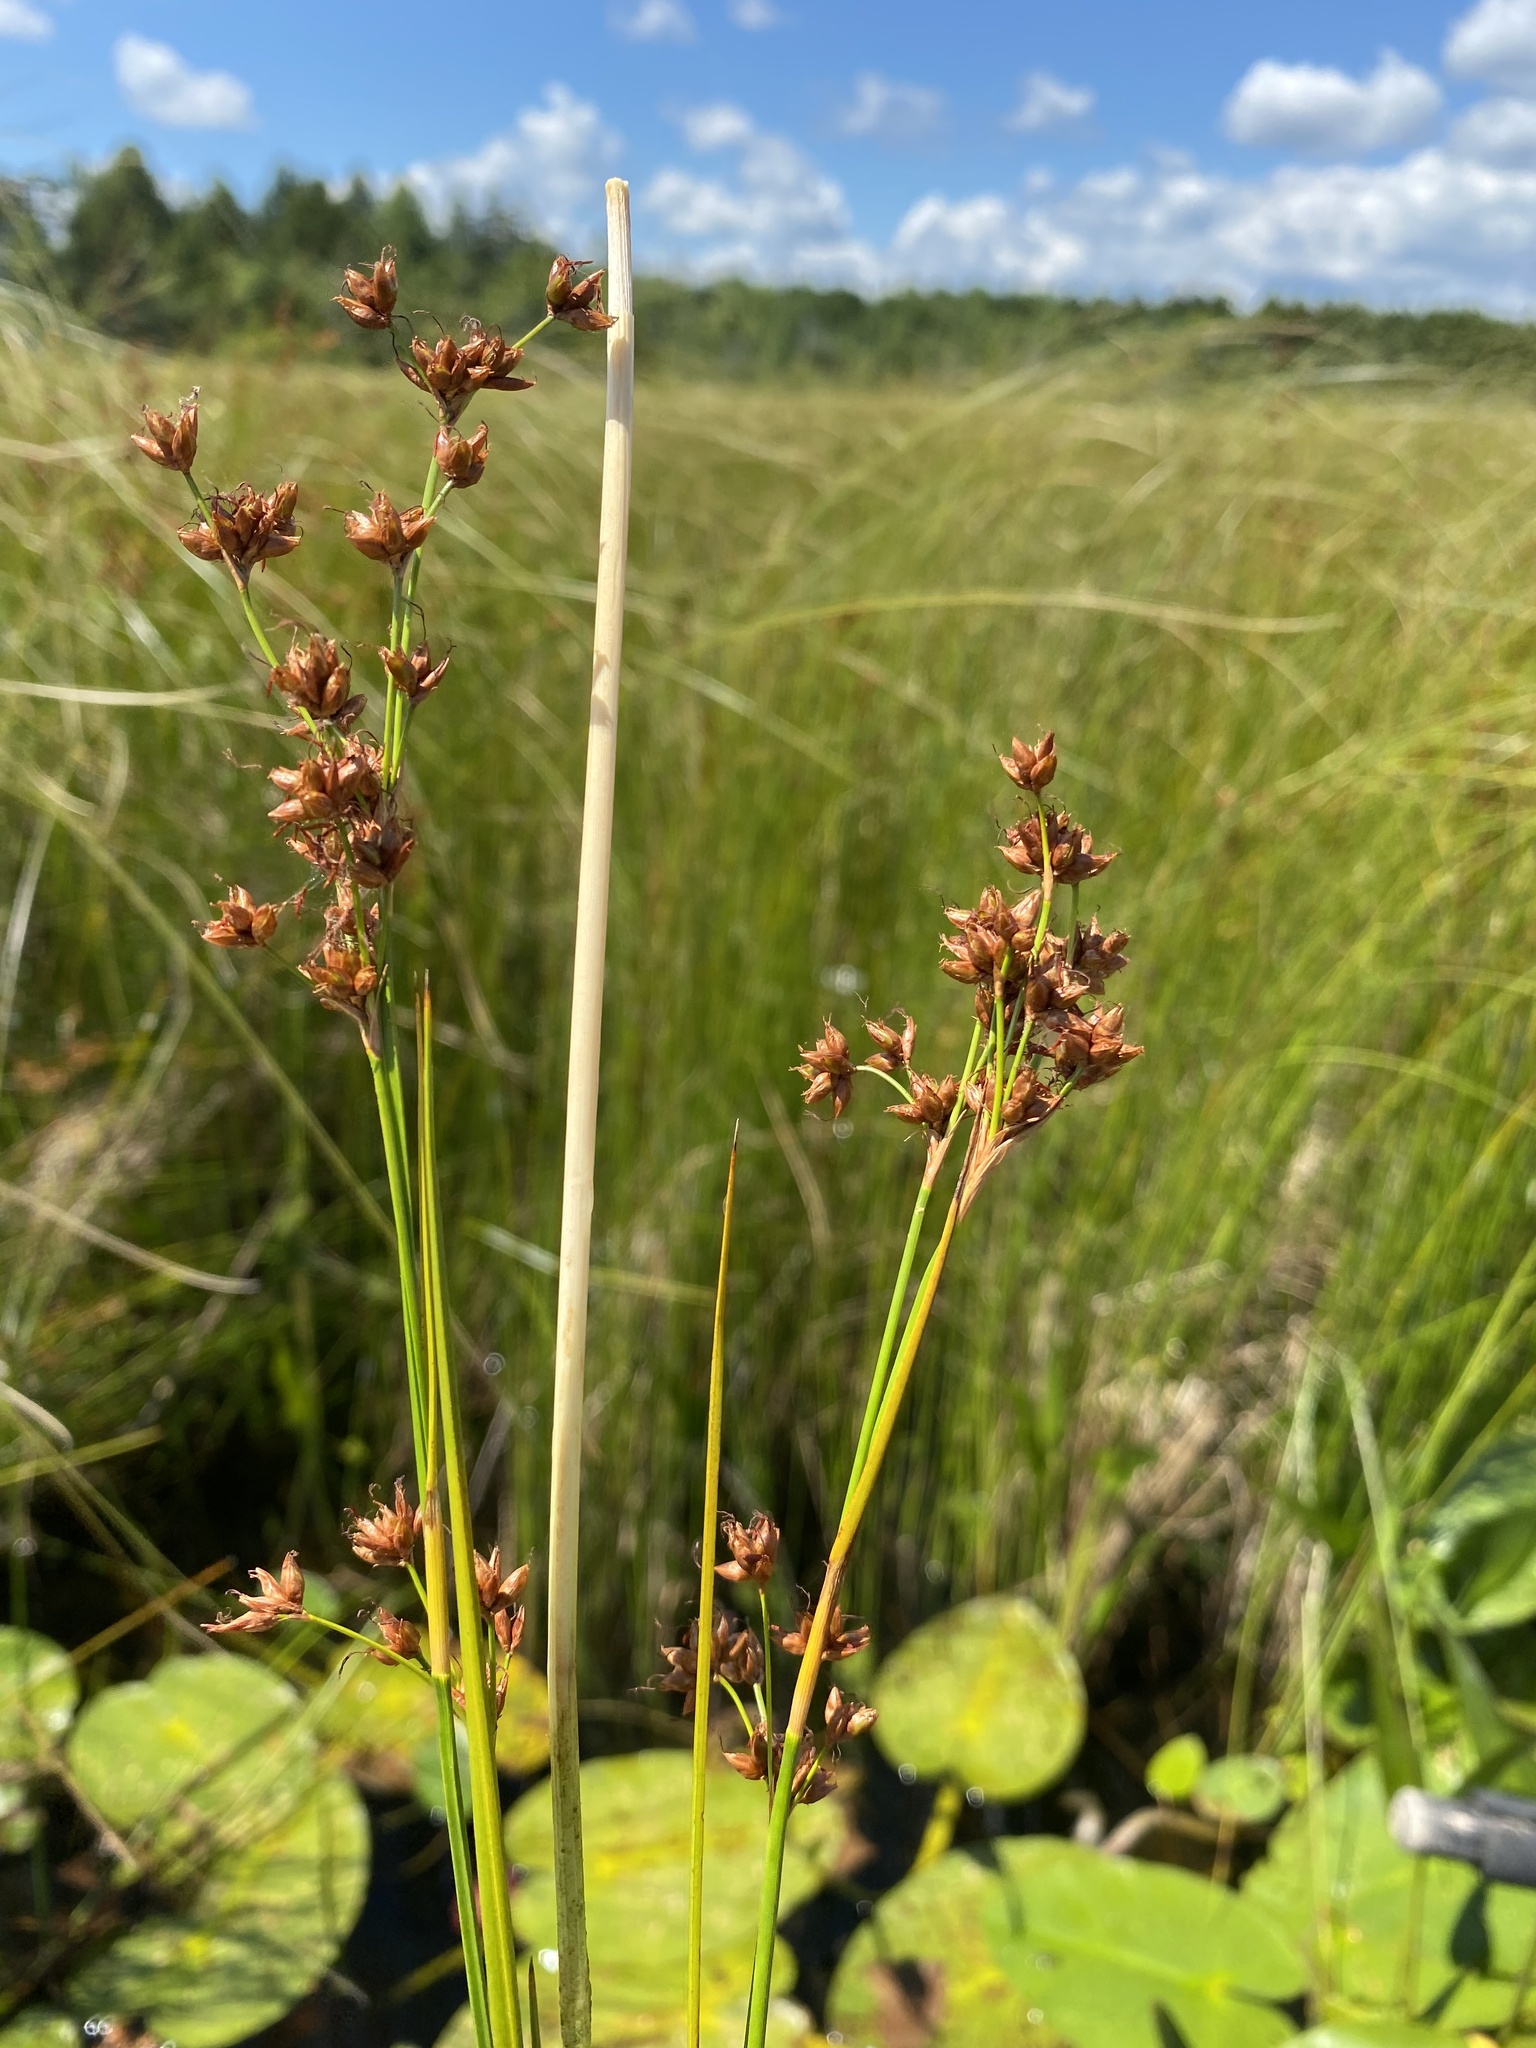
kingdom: Plantae
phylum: Tracheophyta
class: Liliopsida
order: Poales
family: Cyperaceae
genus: Cladium
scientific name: Cladium mariscoides
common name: Smooth sawgrass
